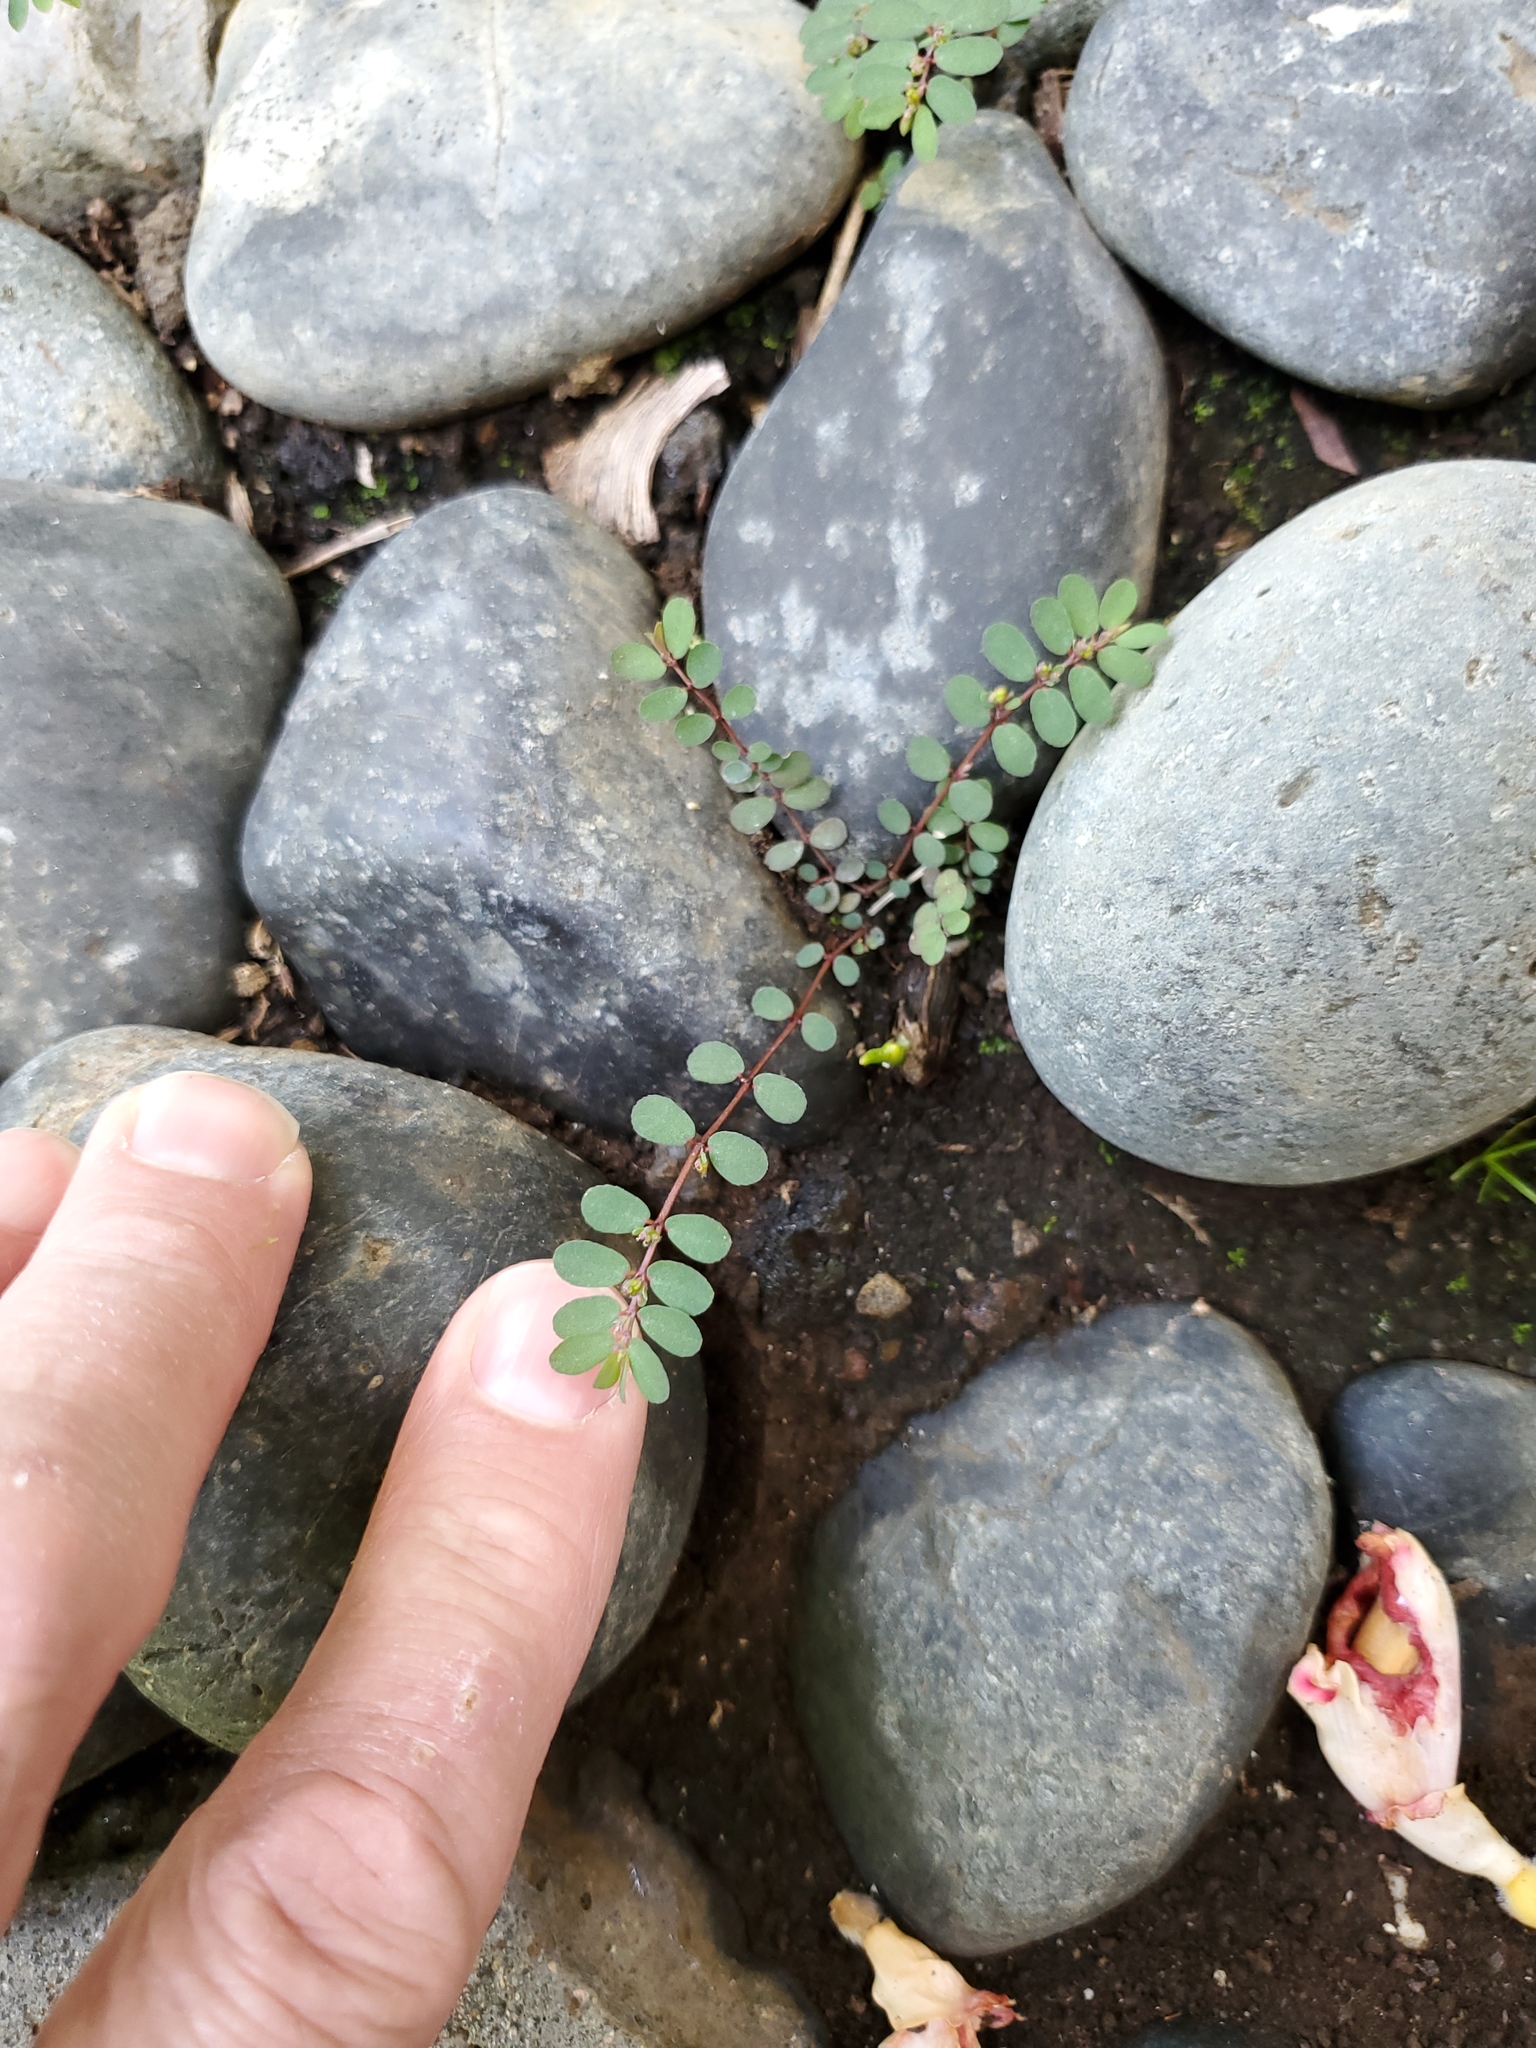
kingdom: Plantae
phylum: Tracheophyta
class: Magnoliopsida
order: Malpighiales
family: Euphorbiaceae
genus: Euphorbia
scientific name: Euphorbia prostrata
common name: Prostrate sandmat
